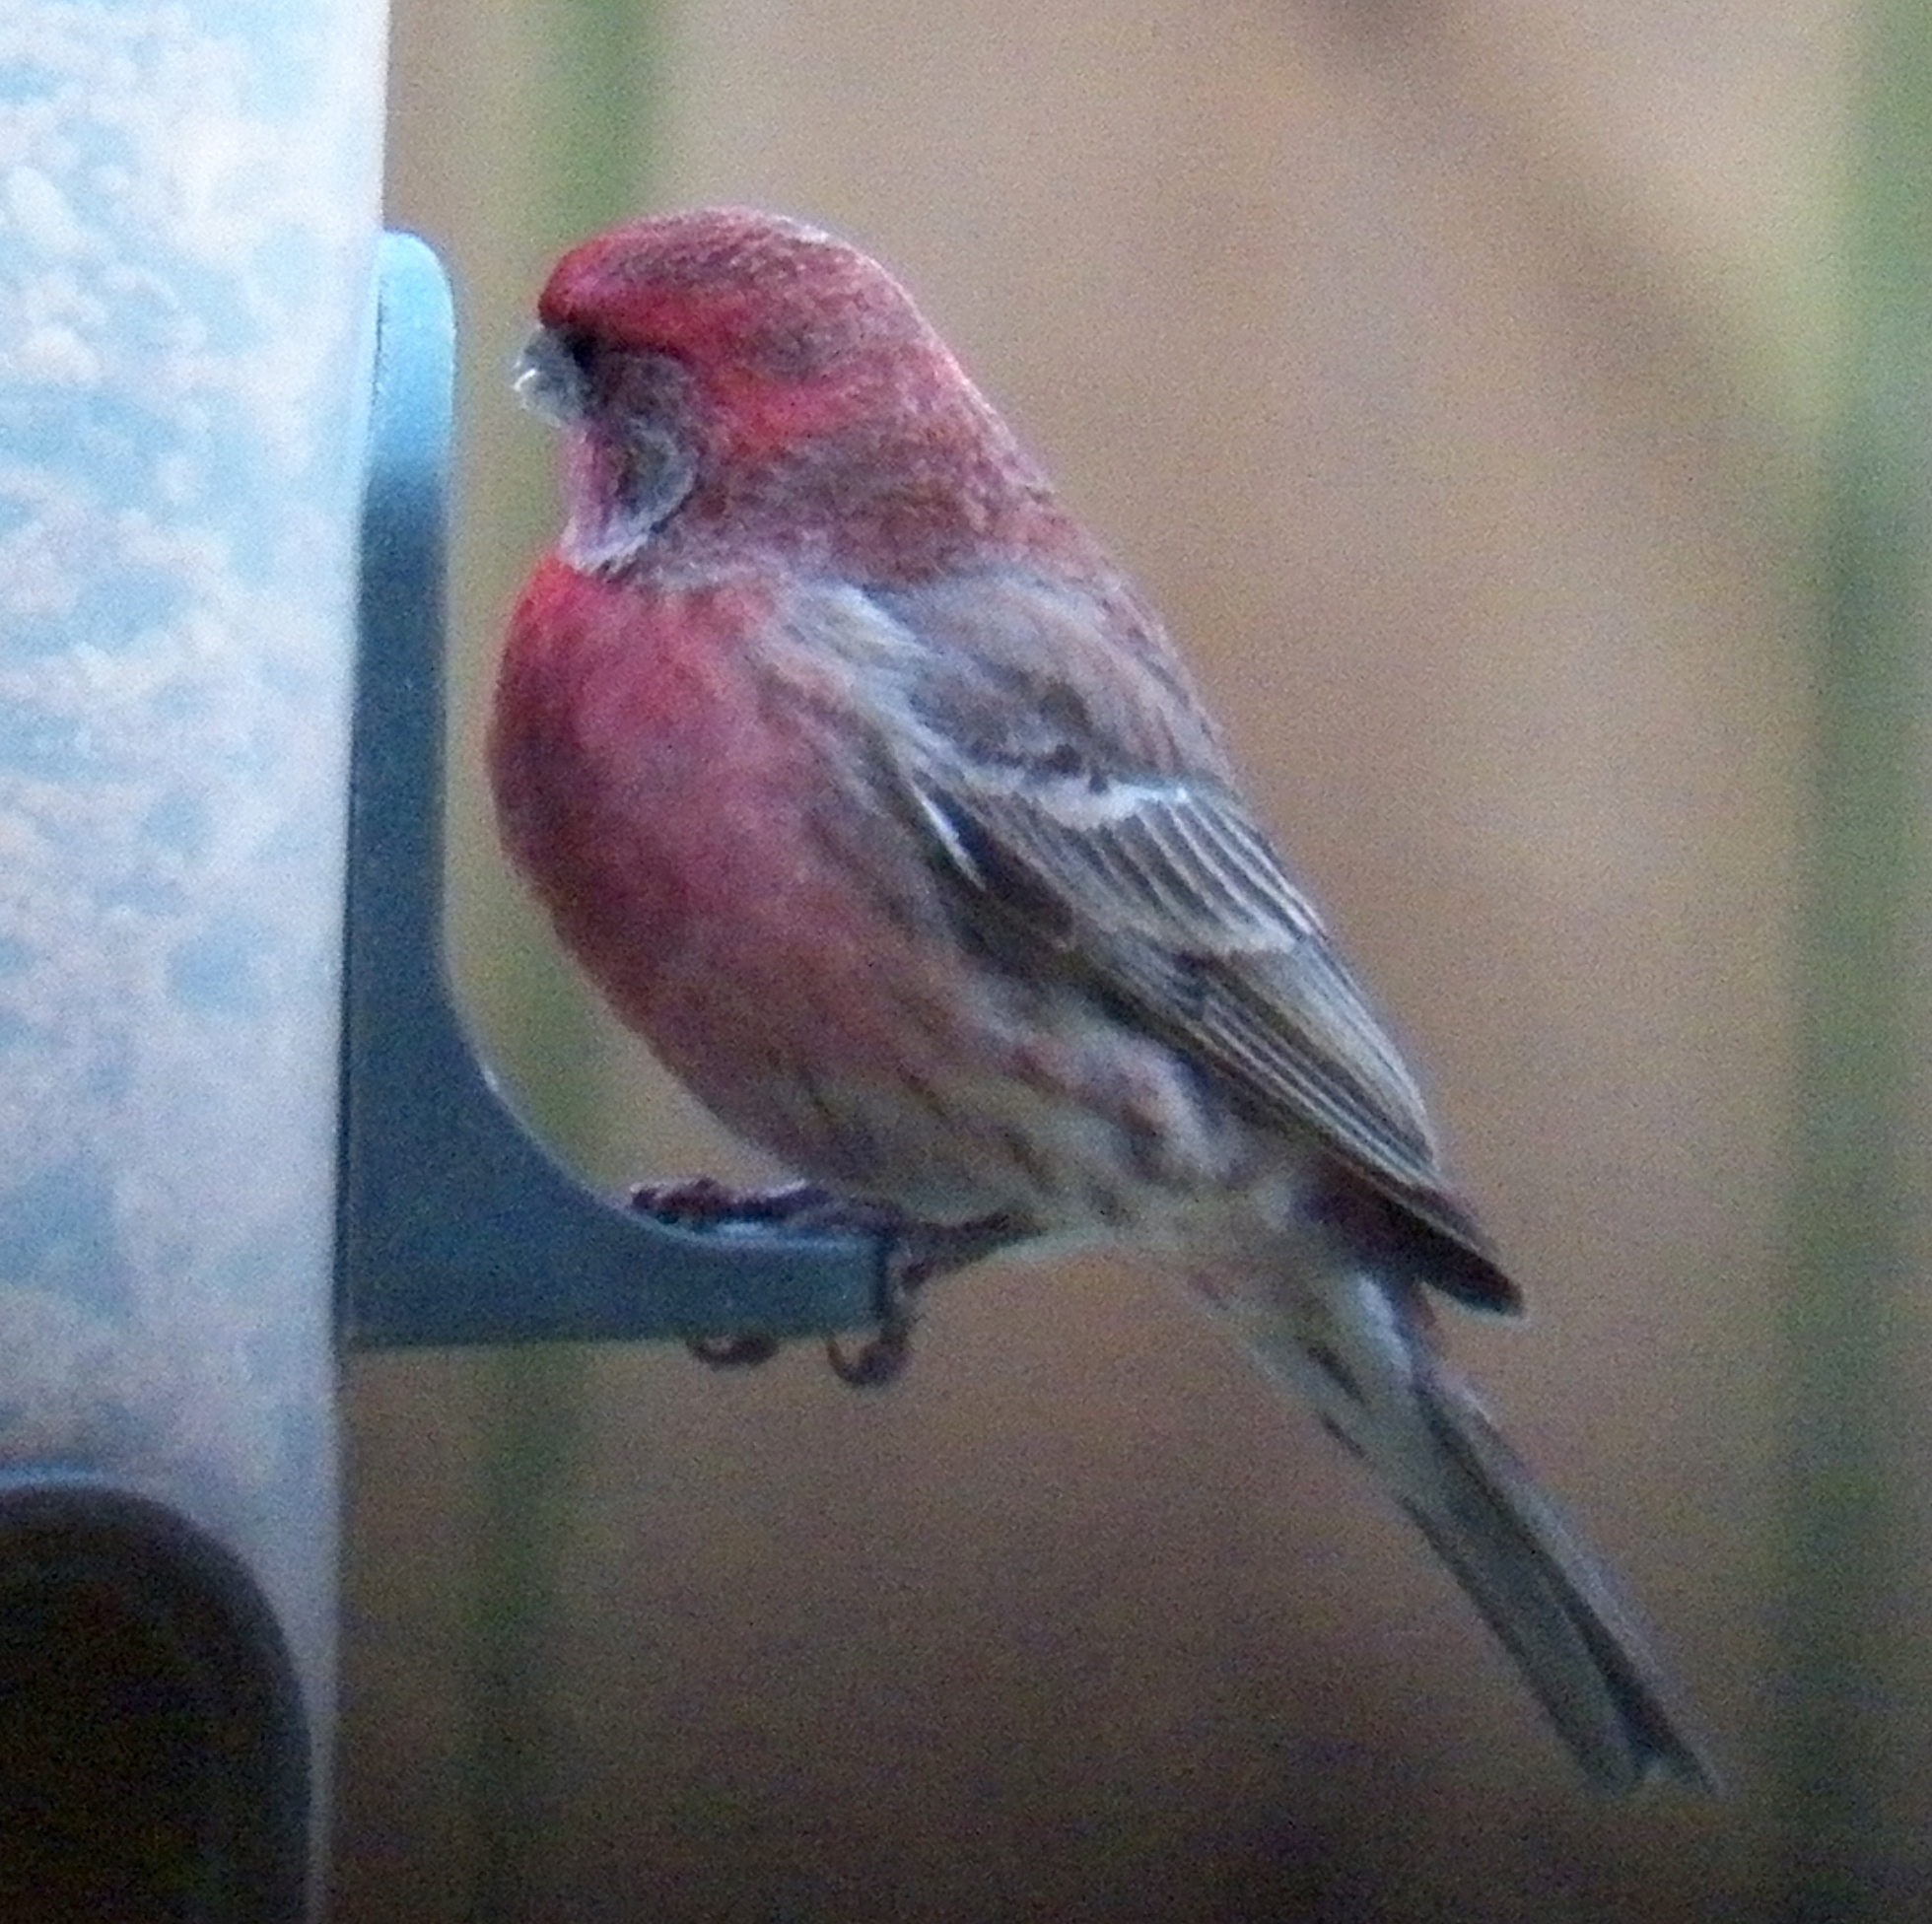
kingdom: Animalia
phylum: Chordata
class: Aves
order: Passeriformes
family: Fringillidae
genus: Haemorhous
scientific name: Haemorhous mexicanus
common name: House finch
